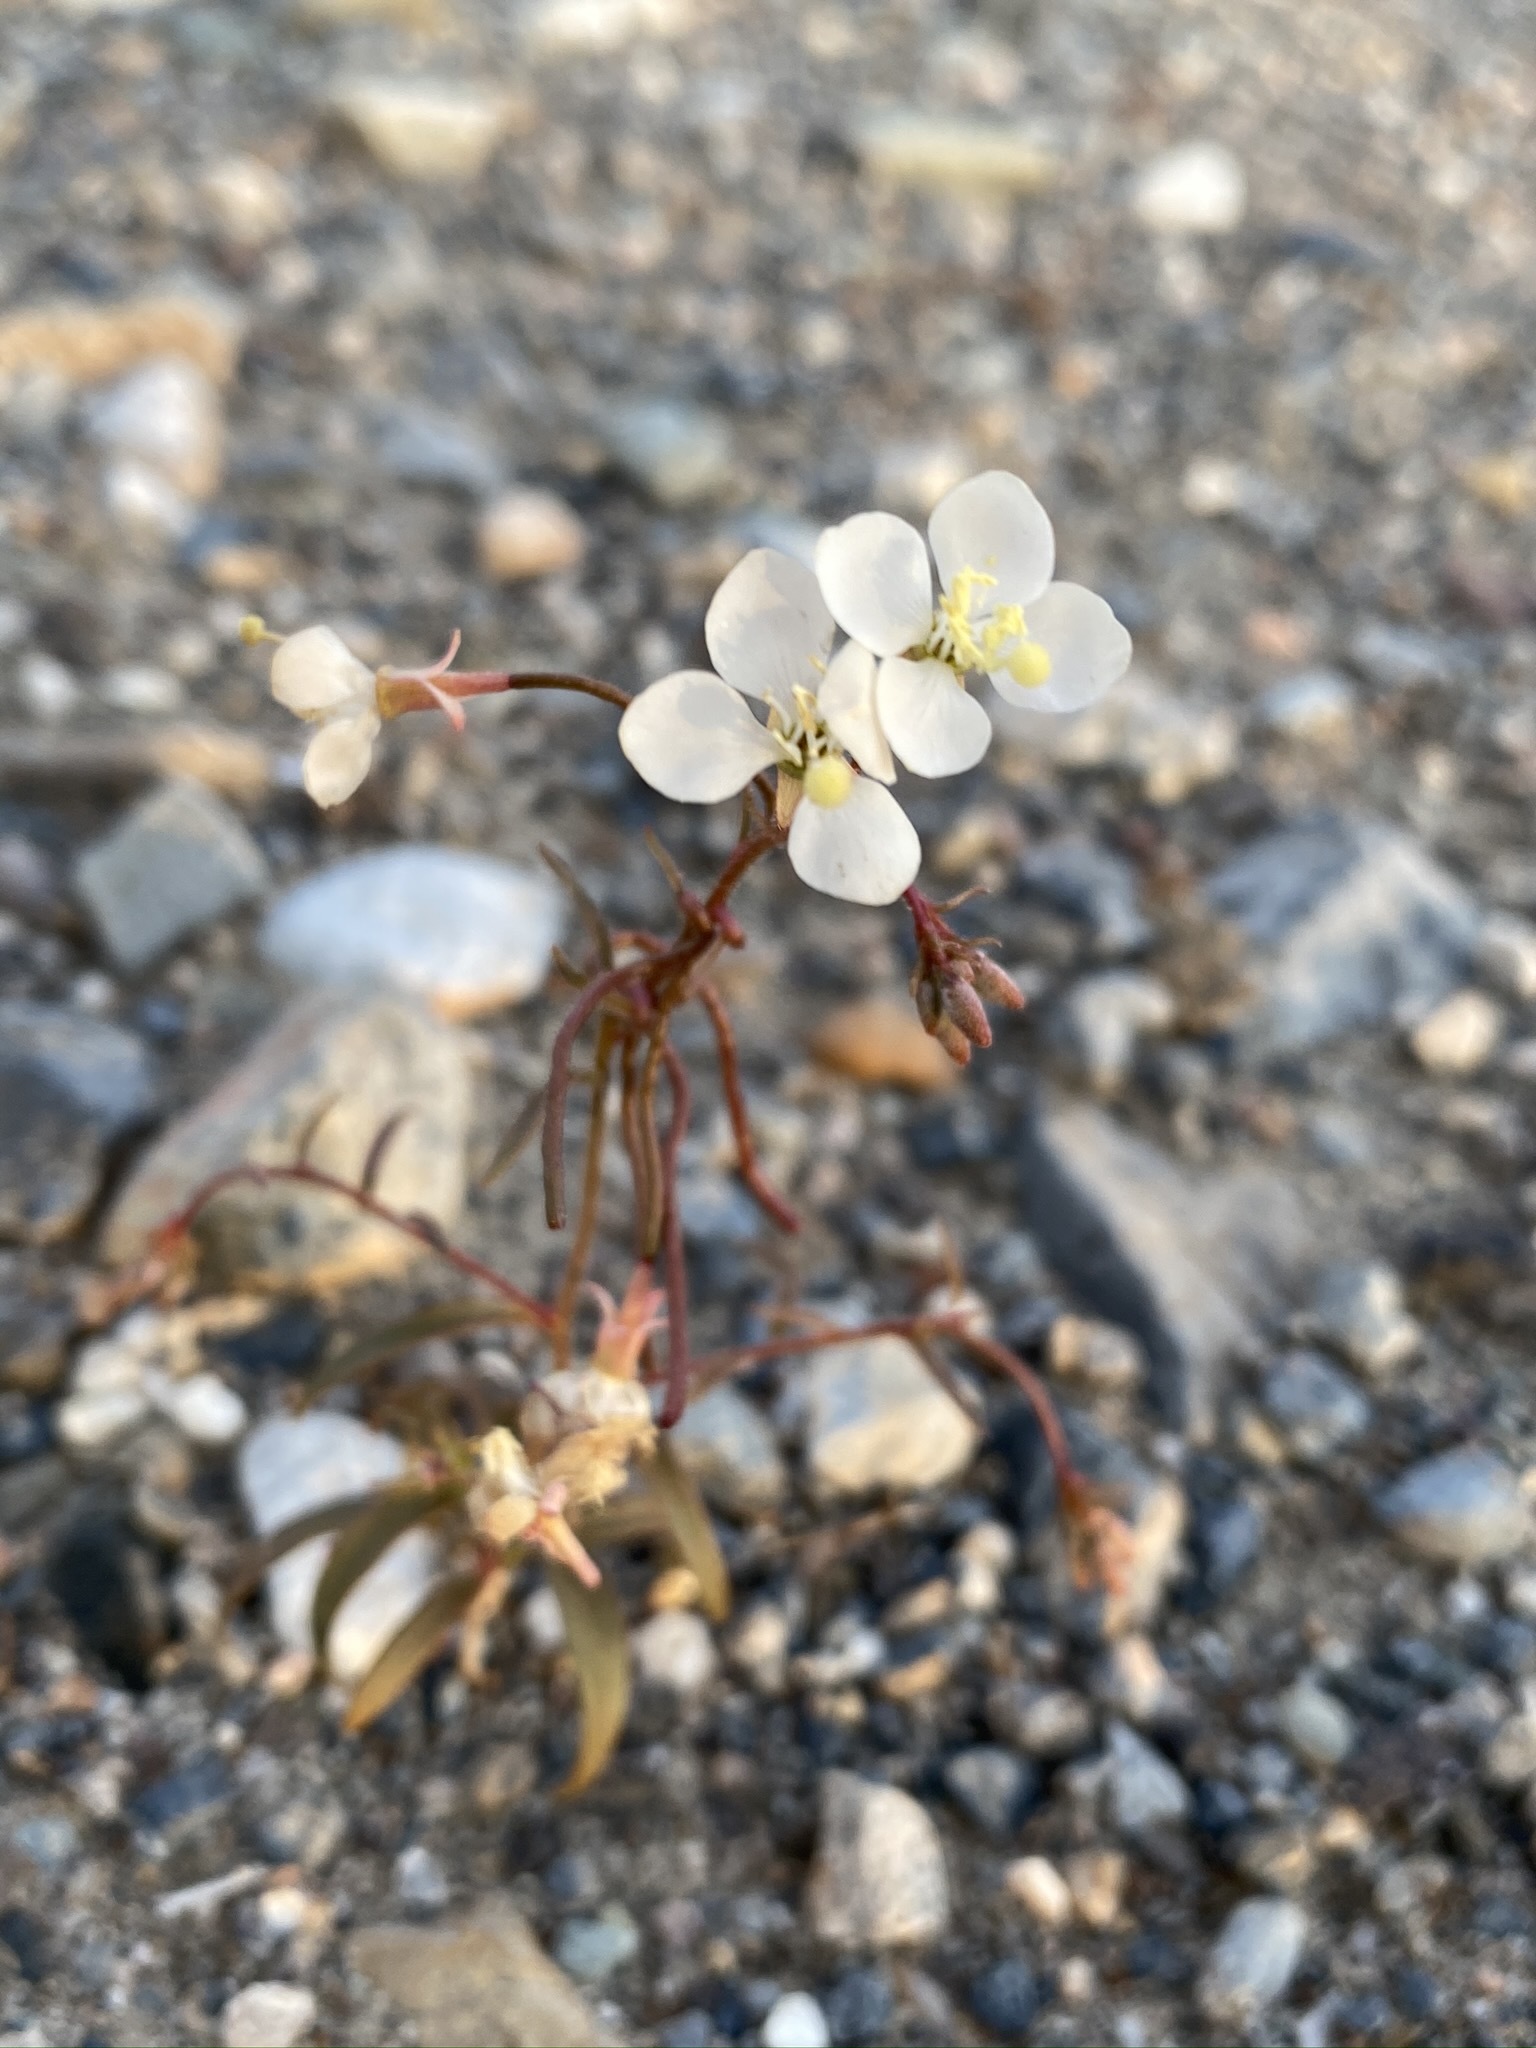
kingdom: Plantae
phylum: Tracheophyta
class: Magnoliopsida
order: Myrtales
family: Onagraceae
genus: Eremothera
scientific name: Eremothera refracta
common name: Narrowleaf suncup
